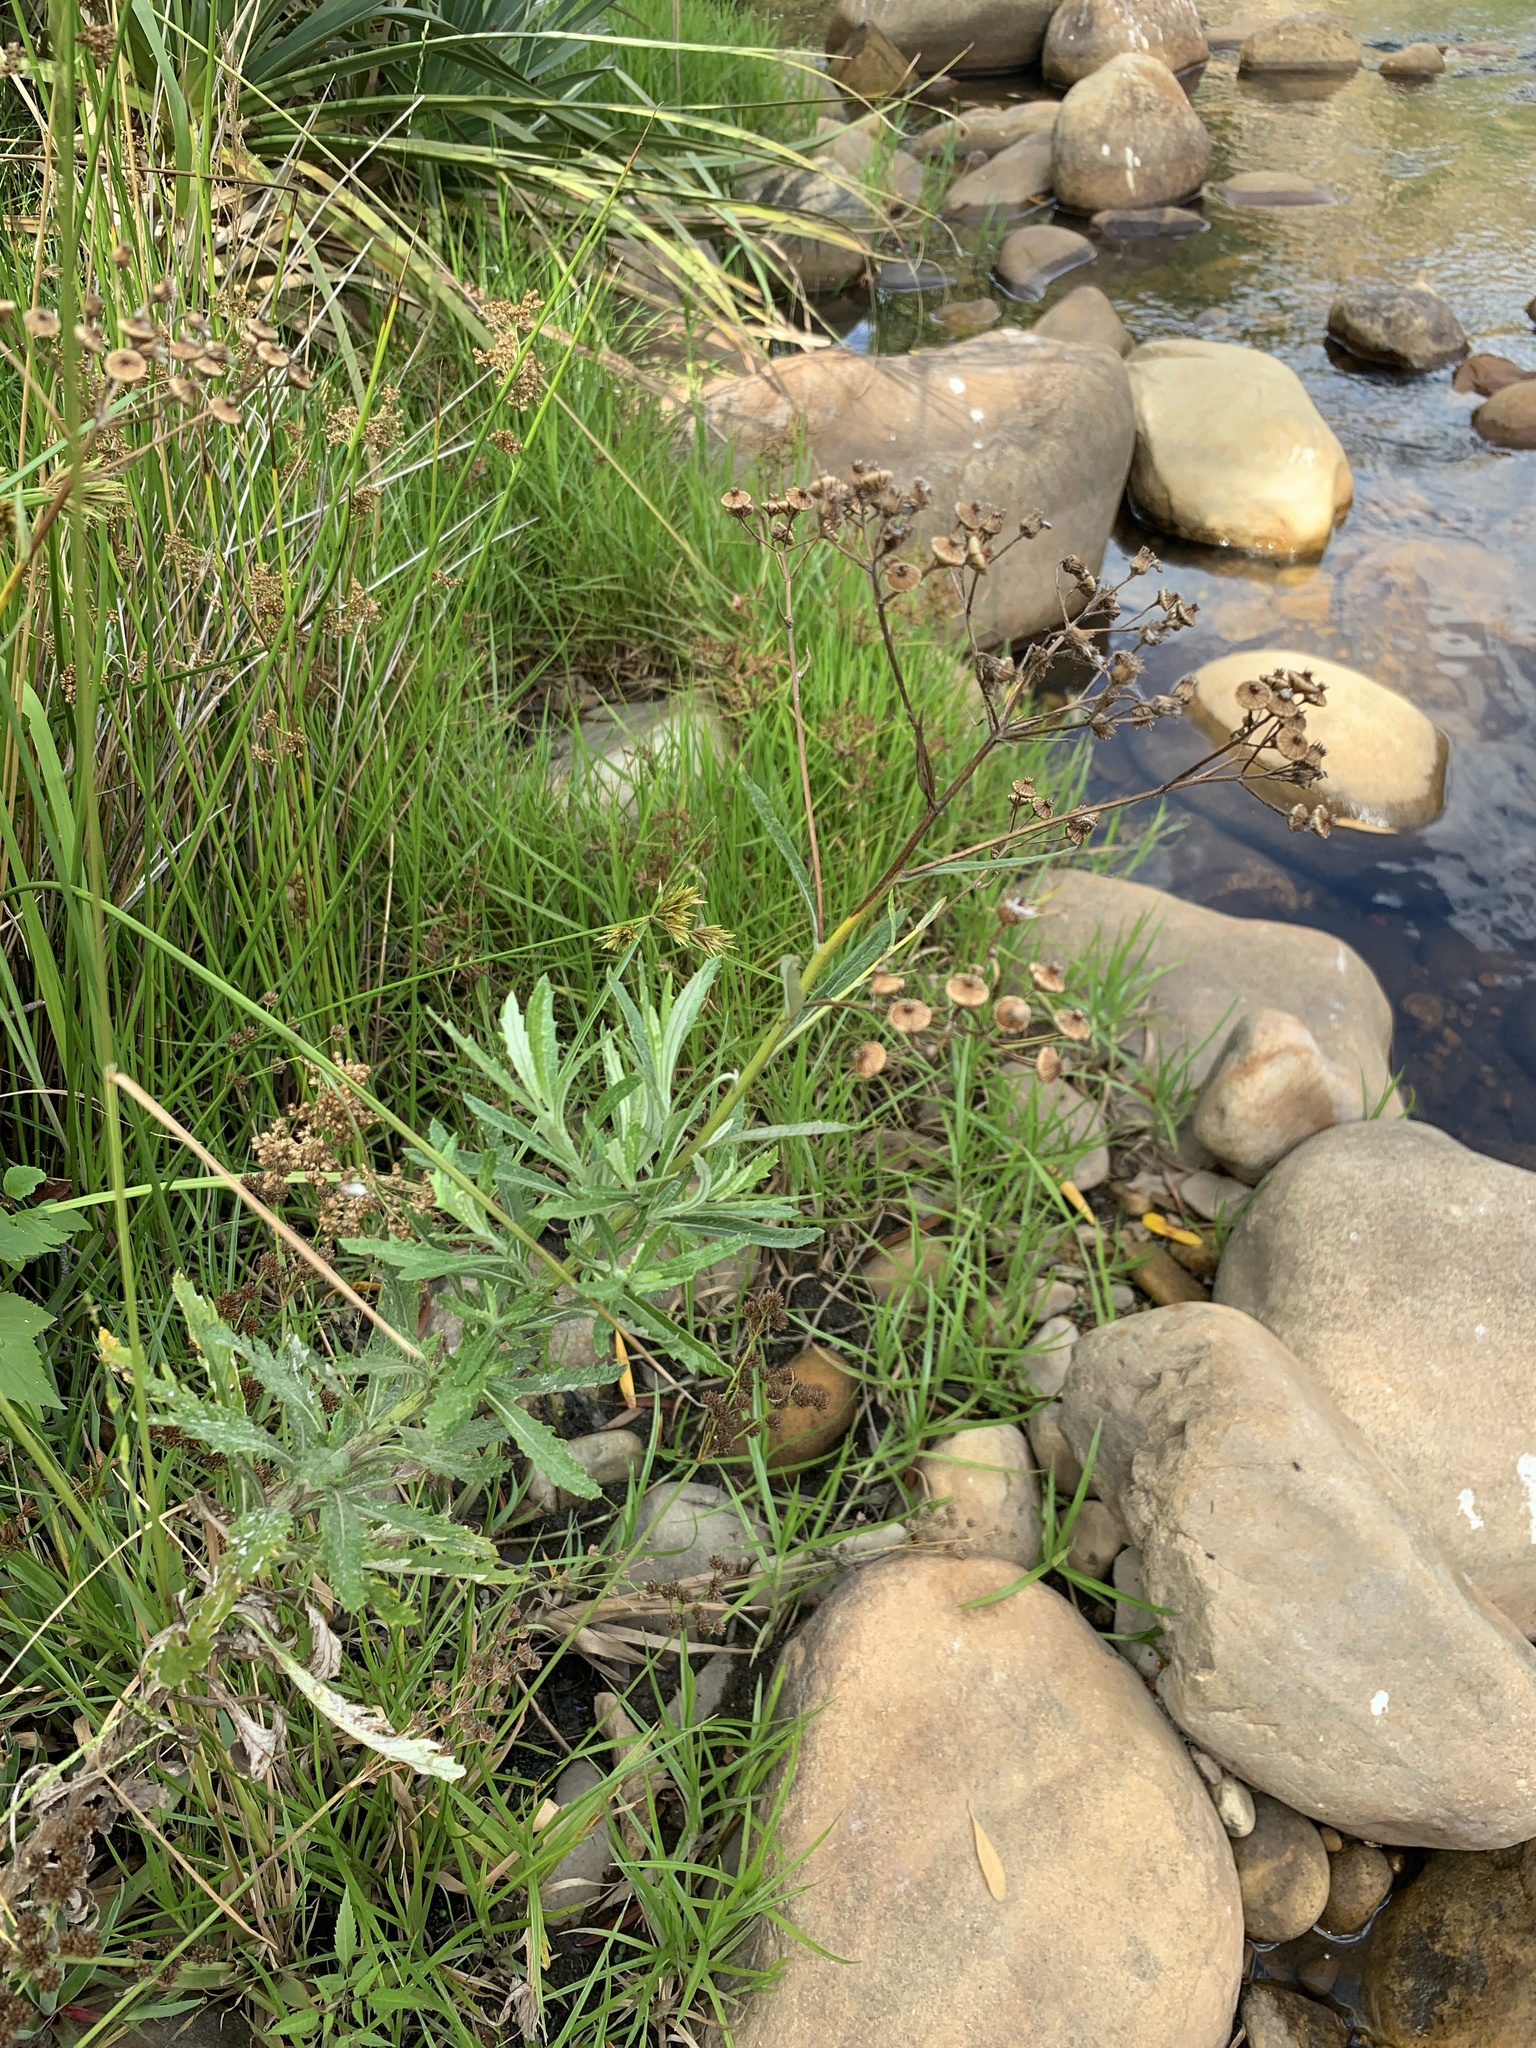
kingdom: Plantae
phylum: Tracheophyta
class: Magnoliopsida
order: Asterales
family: Asteraceae
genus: Senecio
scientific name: Senecio pterophorus
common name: Shoddy ragwort
